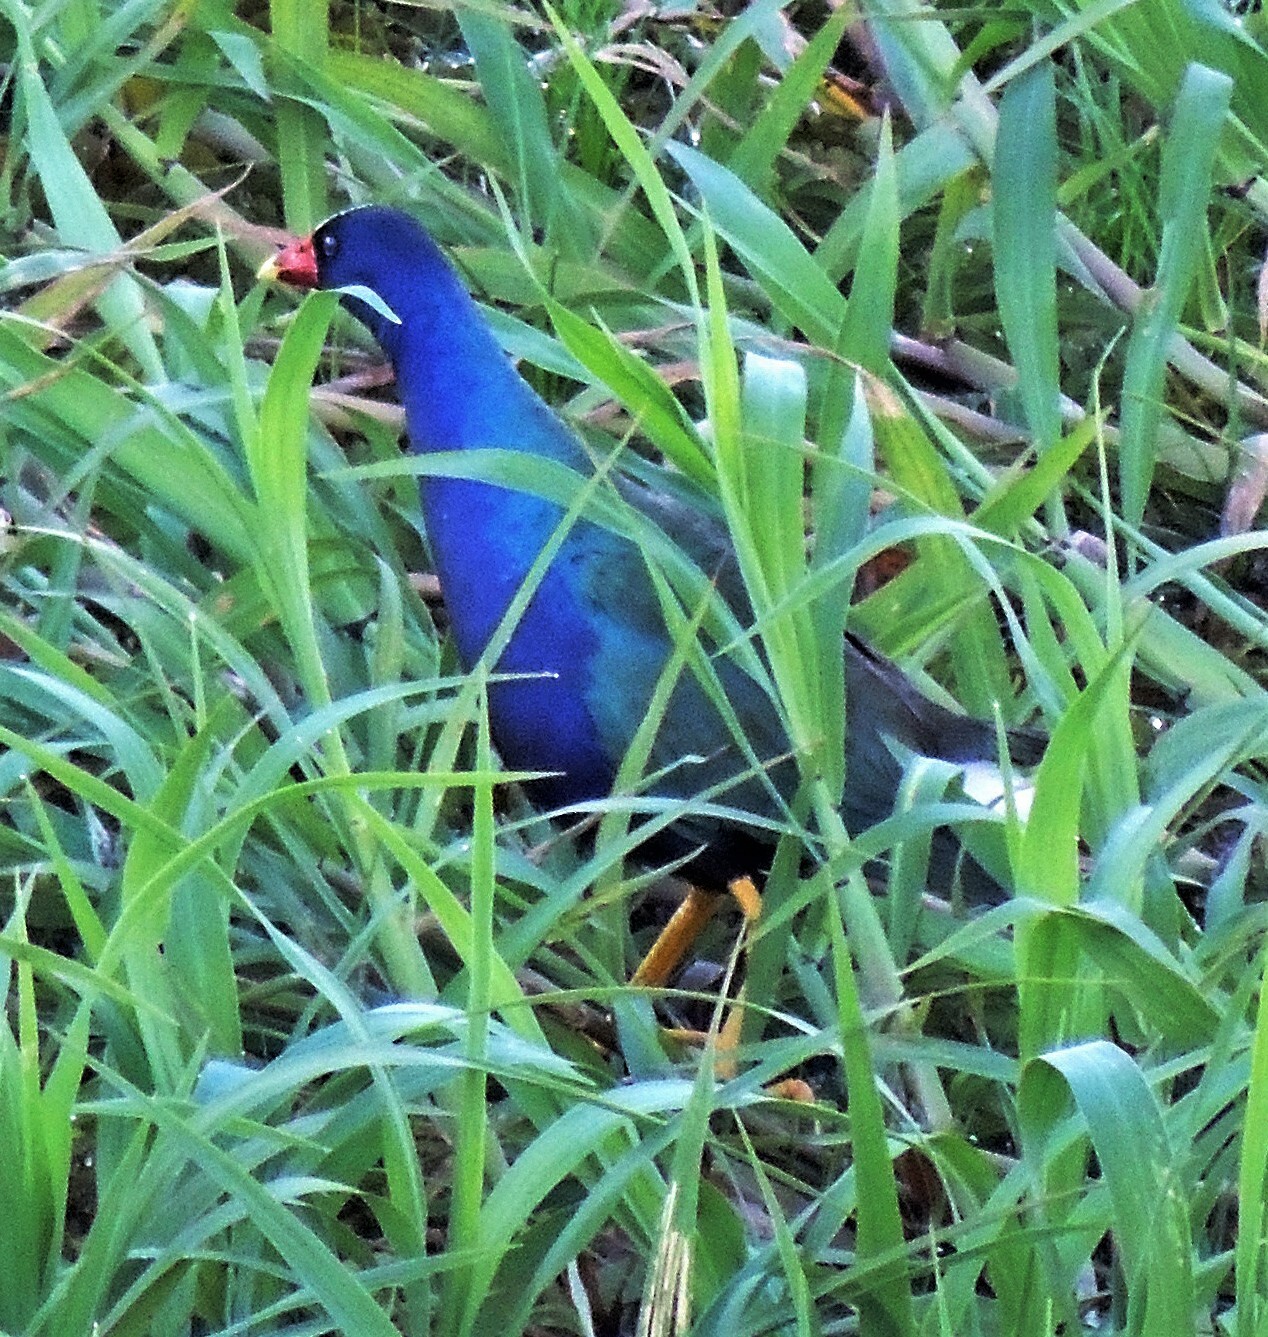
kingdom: Animalia
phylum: Chordata
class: Aves
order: Gruiformes
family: Rallidae
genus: Porphyrio
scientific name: Porphyrio martinica
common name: Purple gallinule
